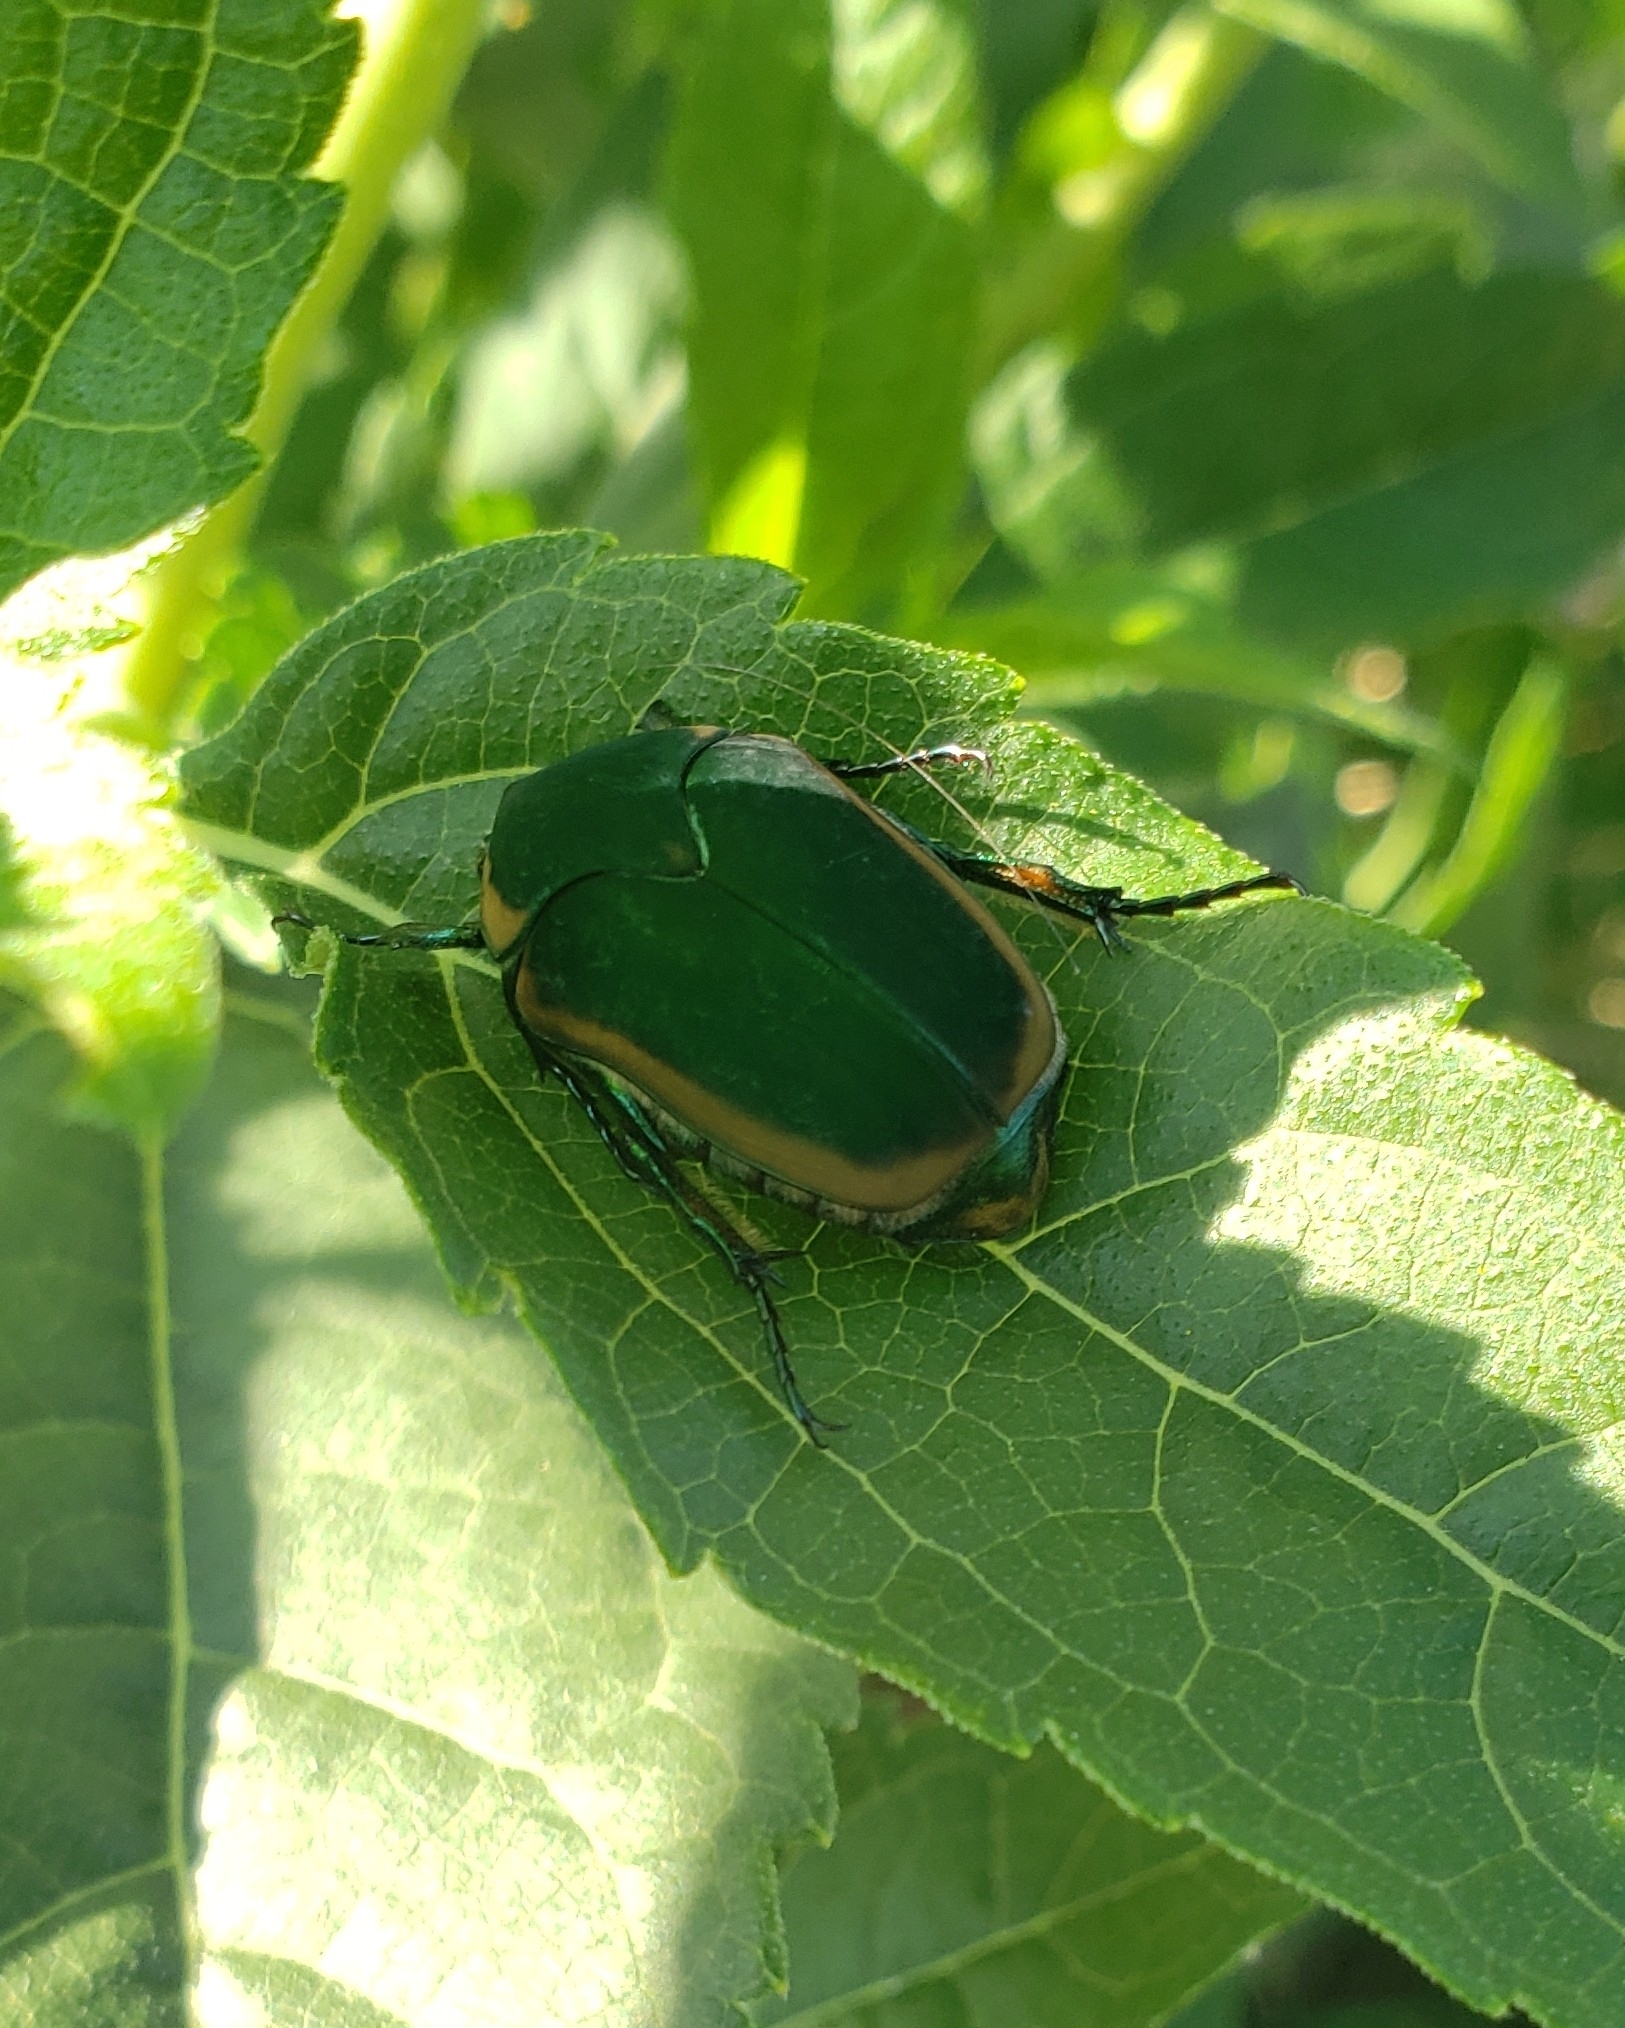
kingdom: Animalia
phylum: Arthropoda
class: Insecta
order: Coleoptera
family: Scarabaeidae
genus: Cotinis
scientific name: Cotinis nitida
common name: Common green june beetle
